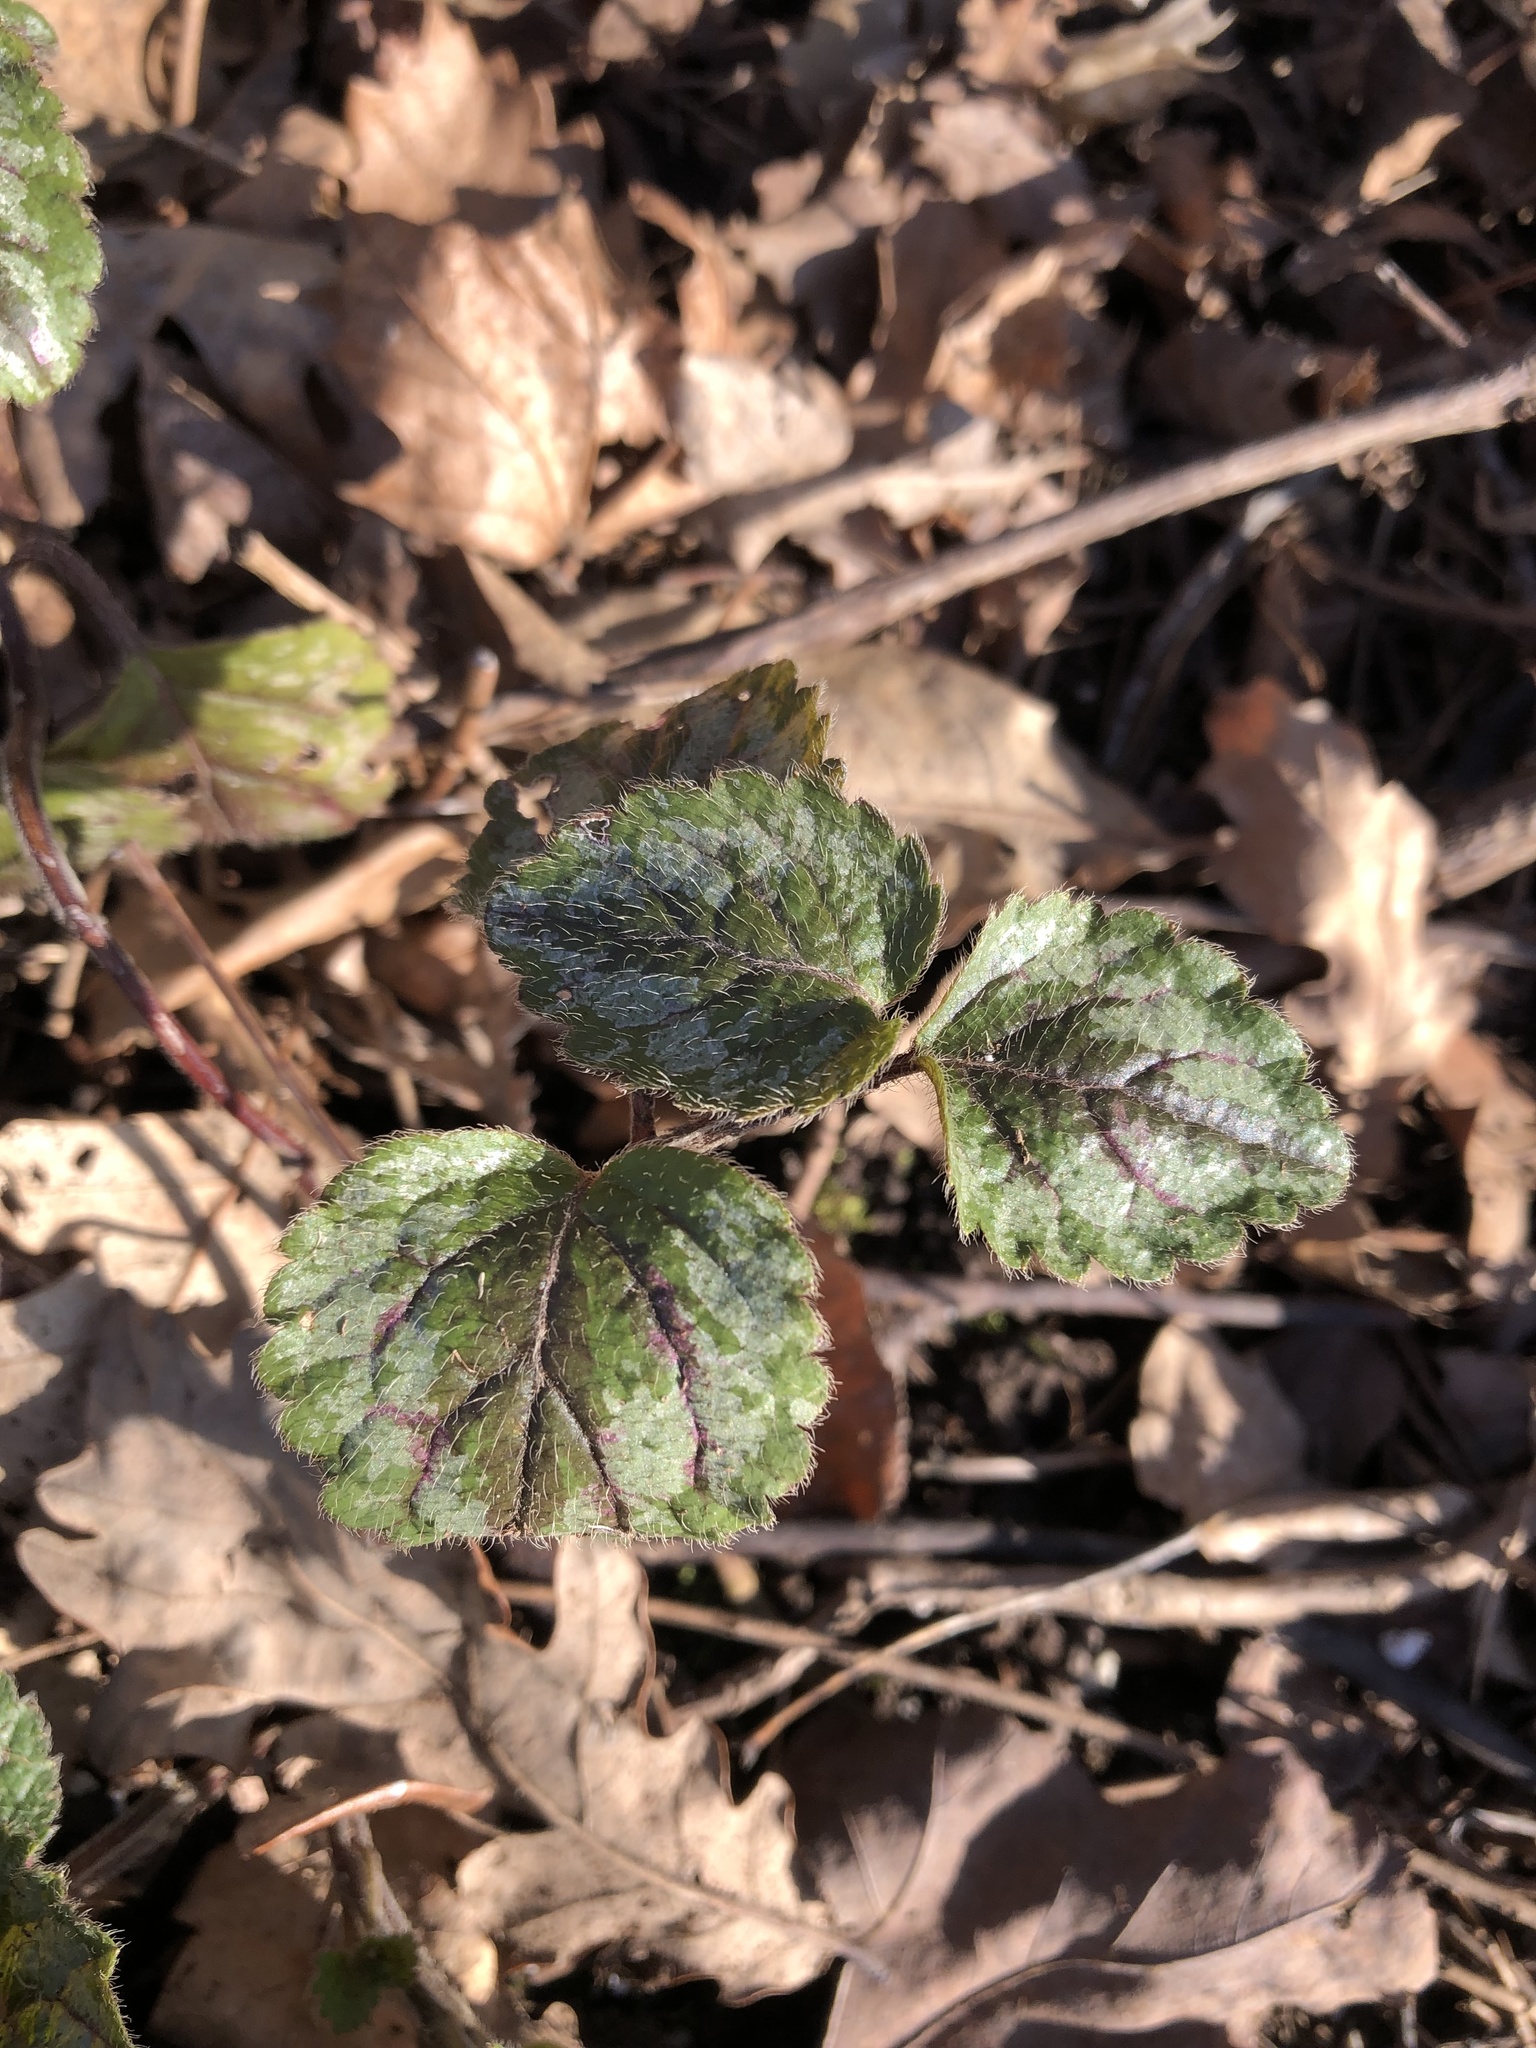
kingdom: Plantae
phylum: Tracheophyta
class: Magnoliopsida
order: Lamiales
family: Lamiaceae
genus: Lamium
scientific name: Lamium galeobdolon
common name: Yellow archangel
